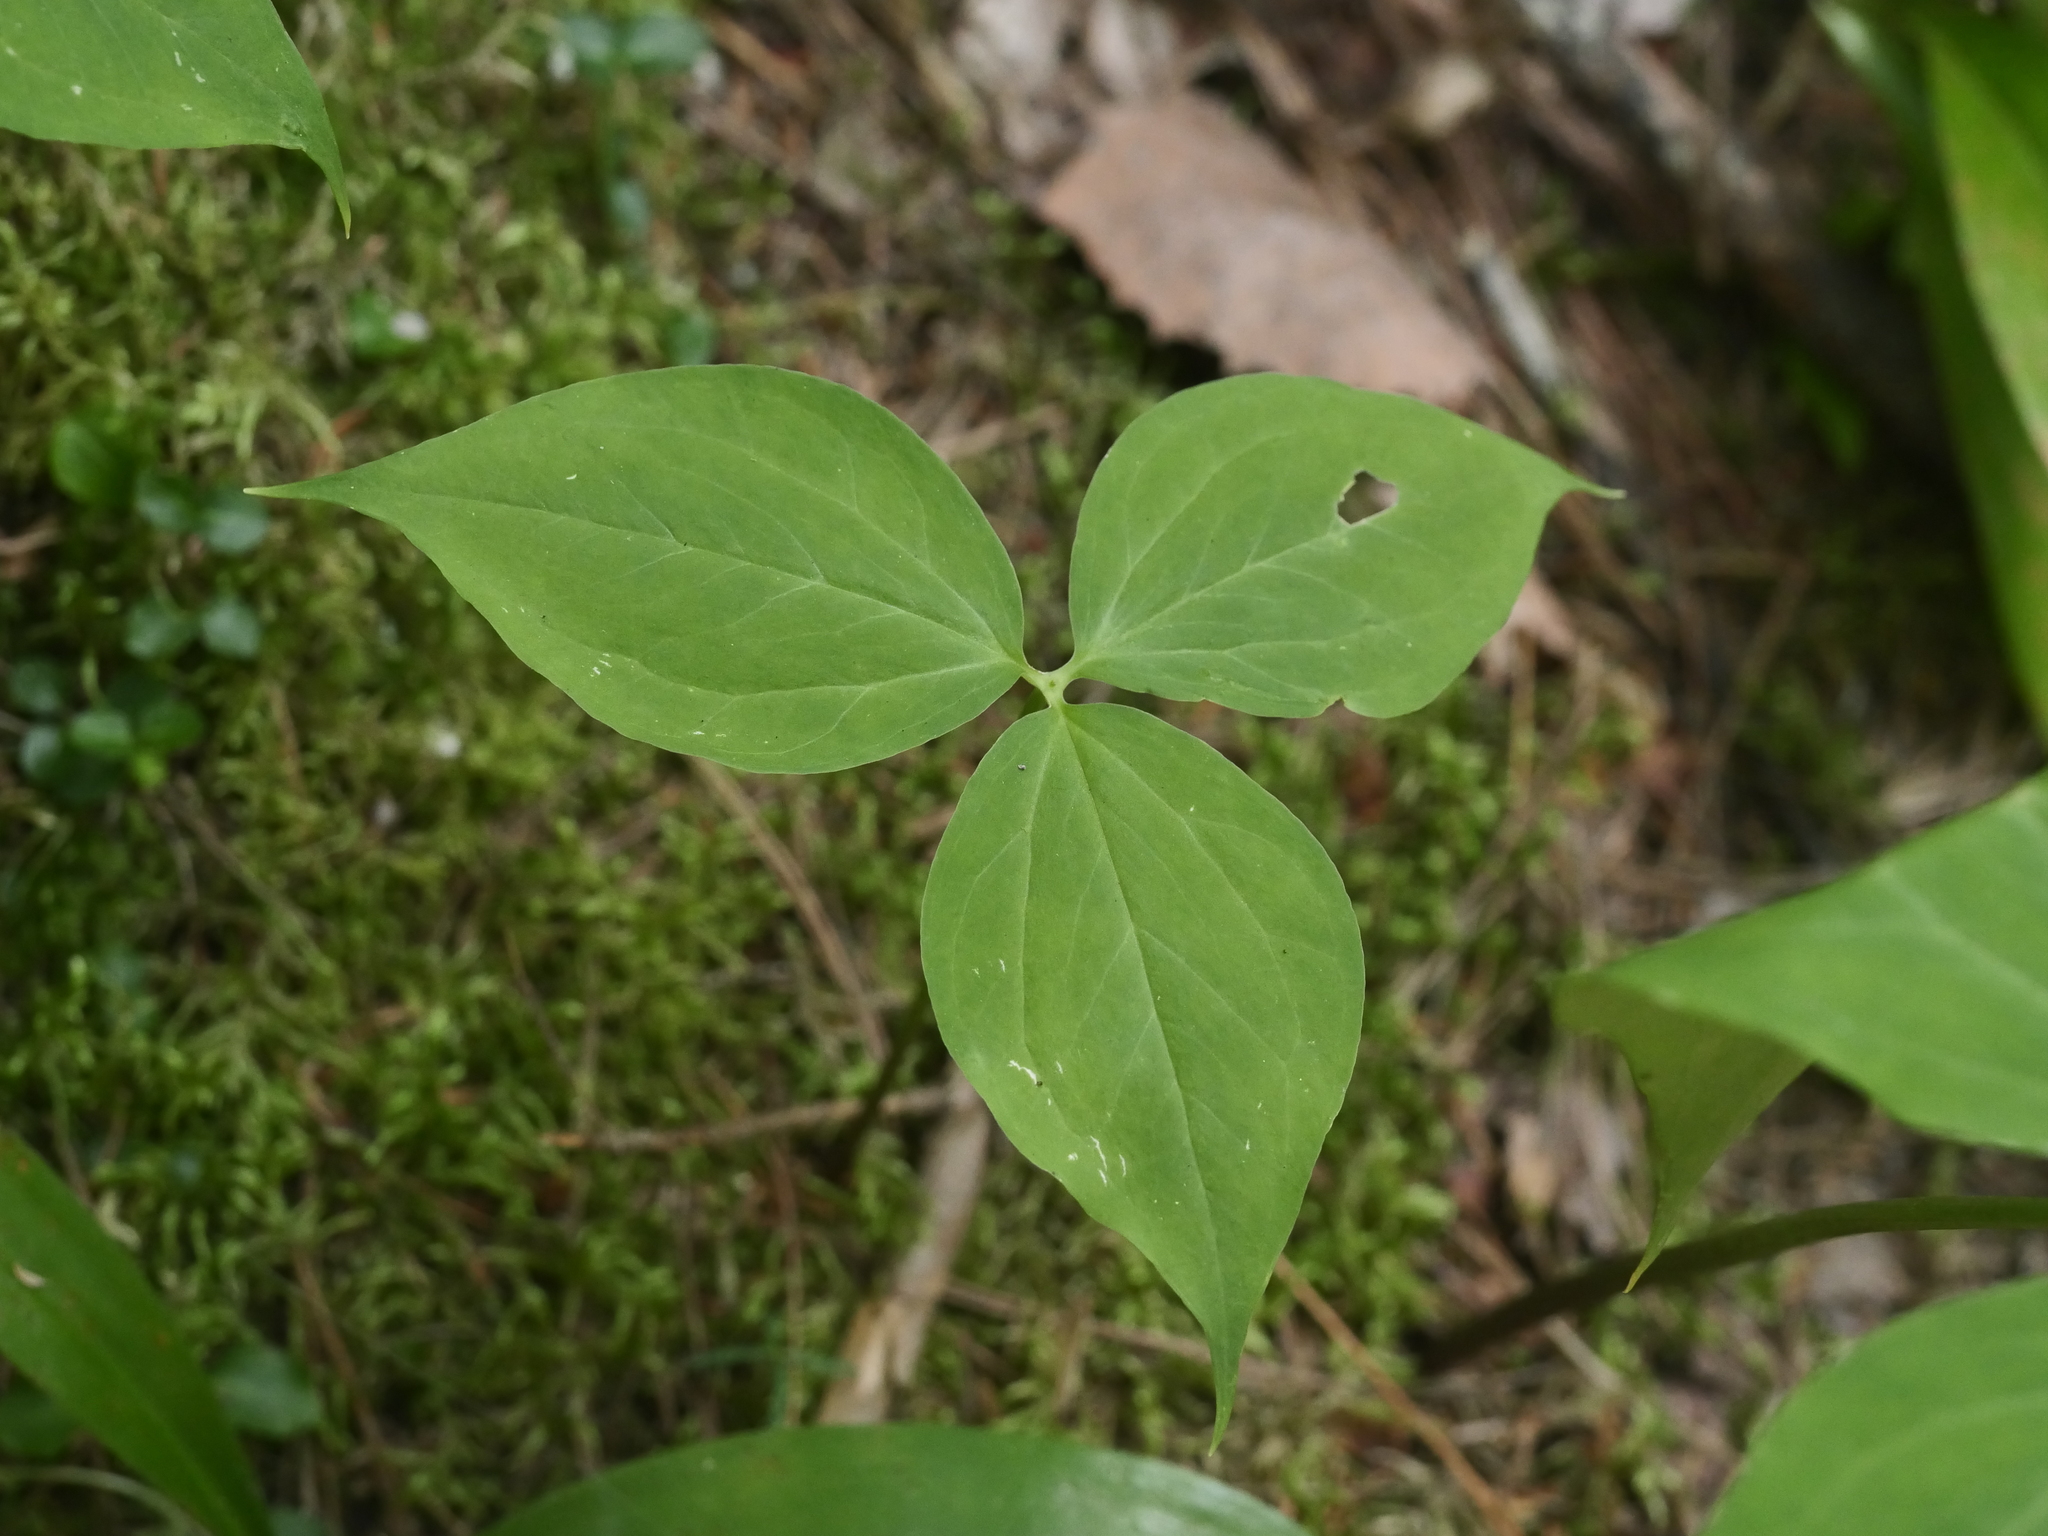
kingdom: Plantae
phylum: Tracheophyta
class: Liliopsida
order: Liliales
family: Melanthiaceae
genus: Trillium
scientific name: Trillium undulatum
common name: Paint trillium
